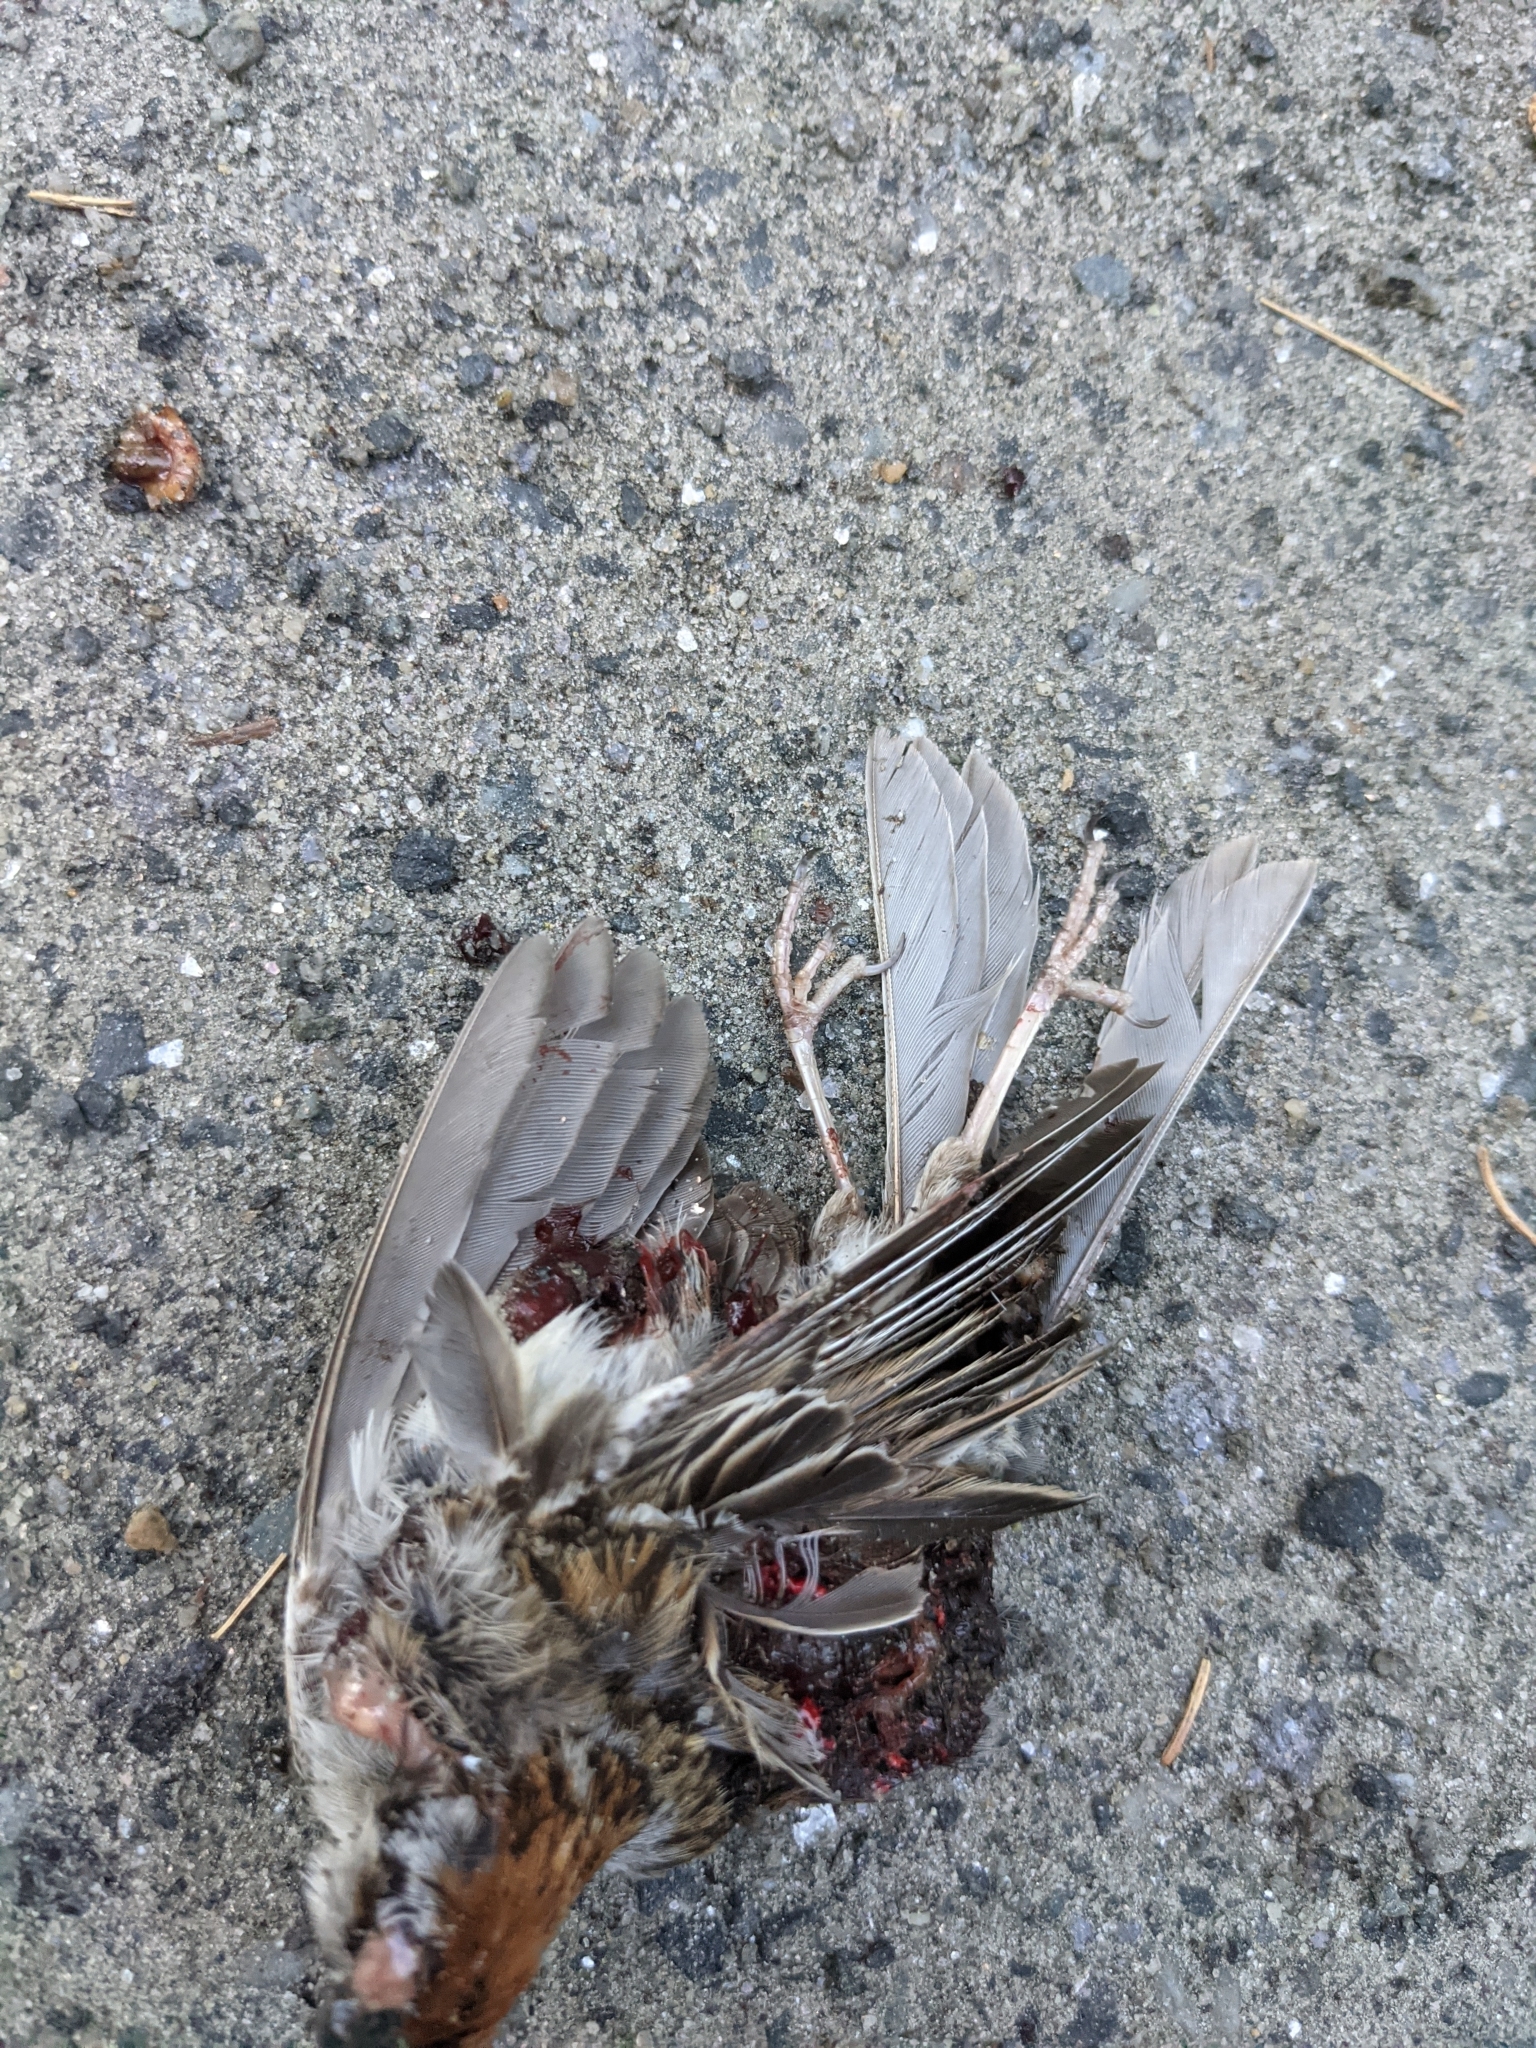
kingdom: Animalia
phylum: Chordata
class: Aves
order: Passeriformes
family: Passerellidae
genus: Spizella
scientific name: Spizella passerina
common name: Chipping sparrow
